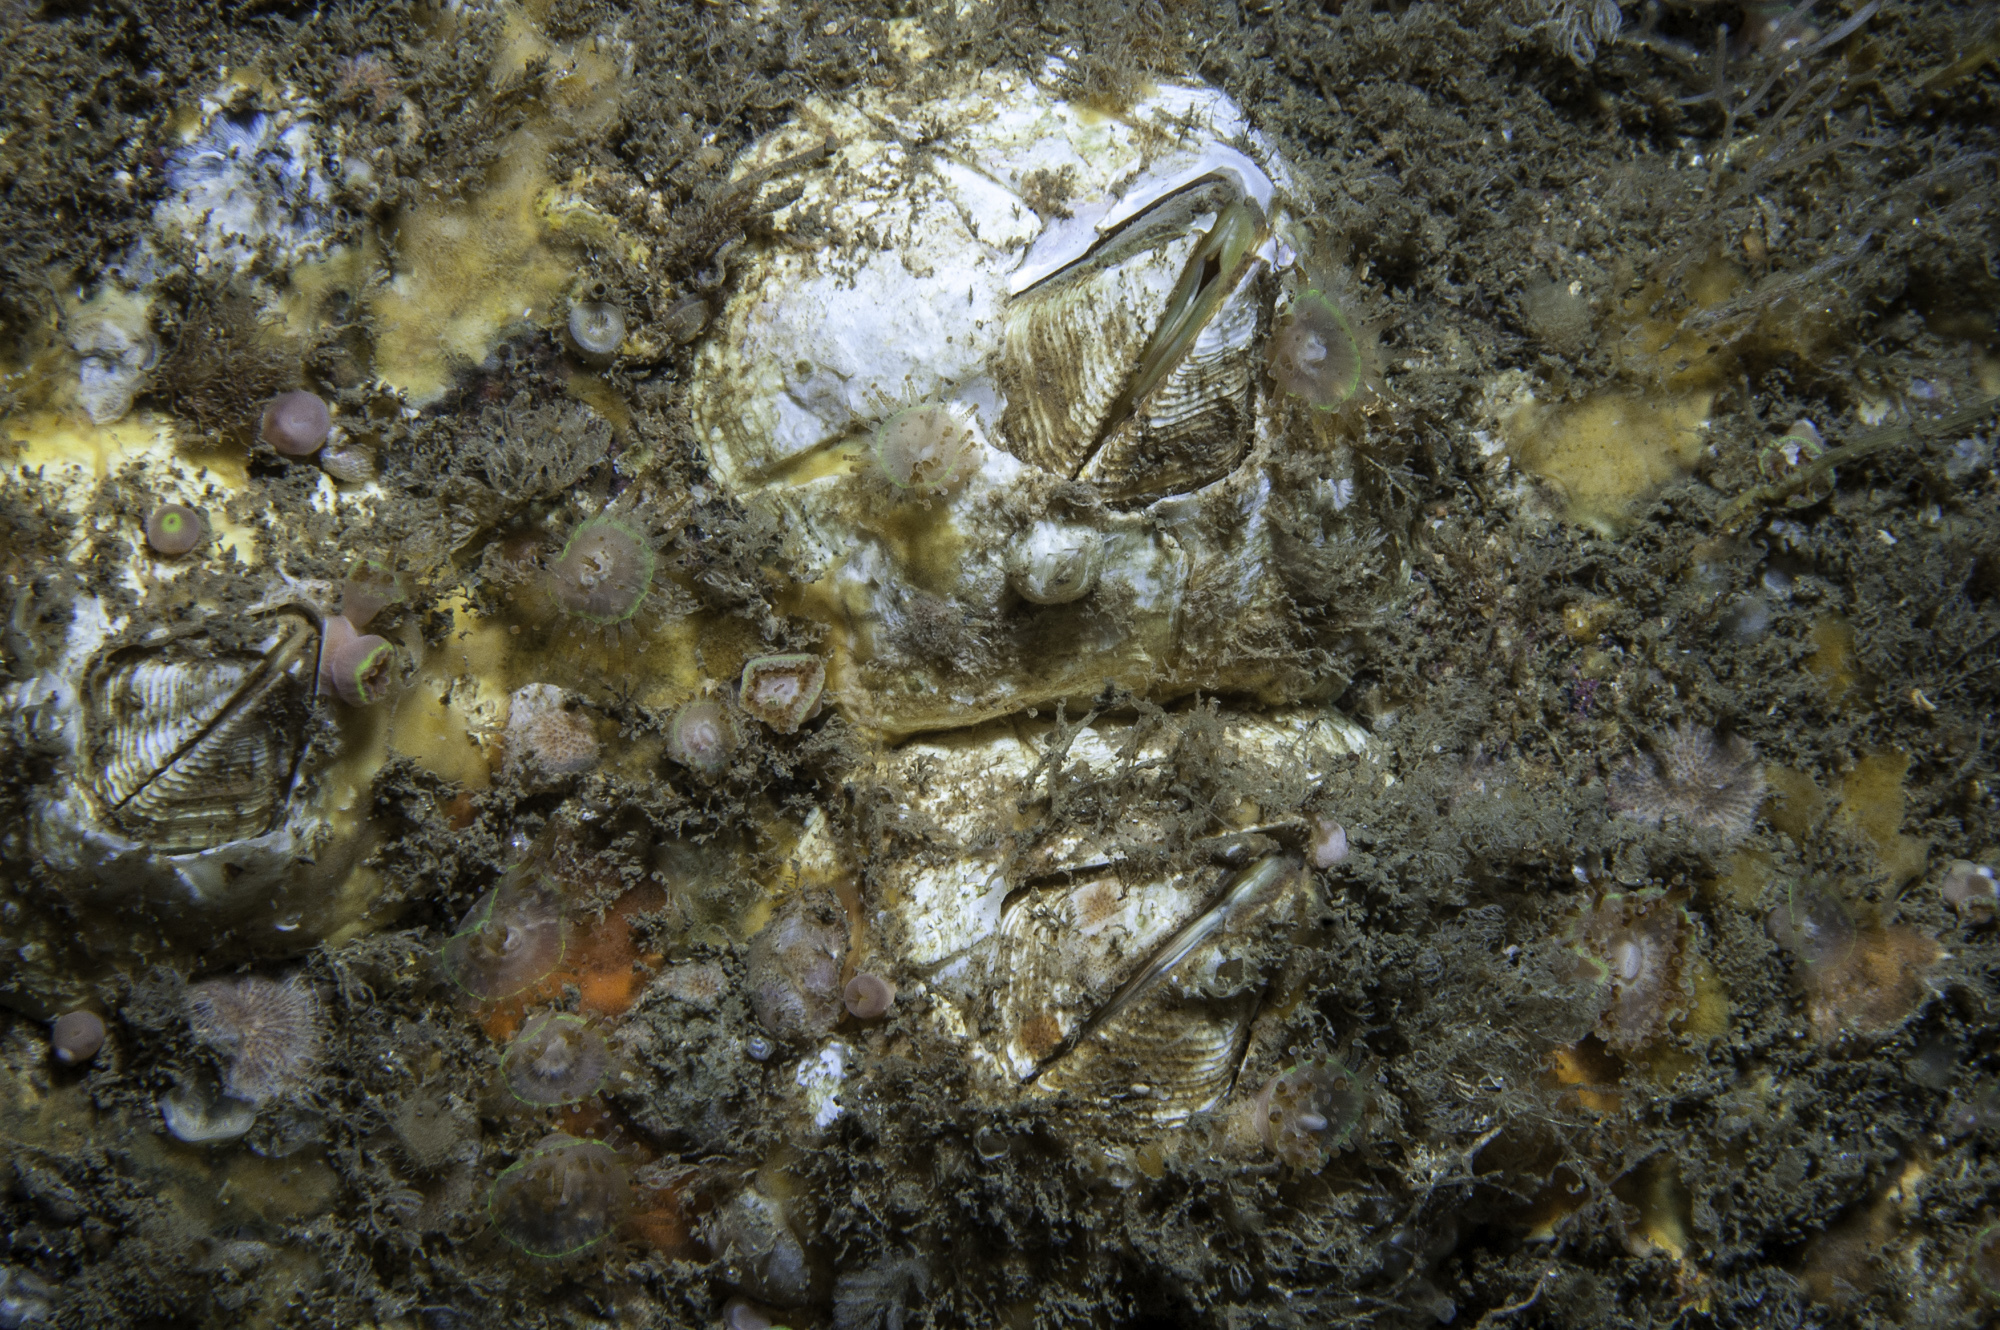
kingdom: Animalia
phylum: Arthropoda
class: Maxillopoda
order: Sessilia
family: Balanidae
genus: Balanus
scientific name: Balanus crenatus
